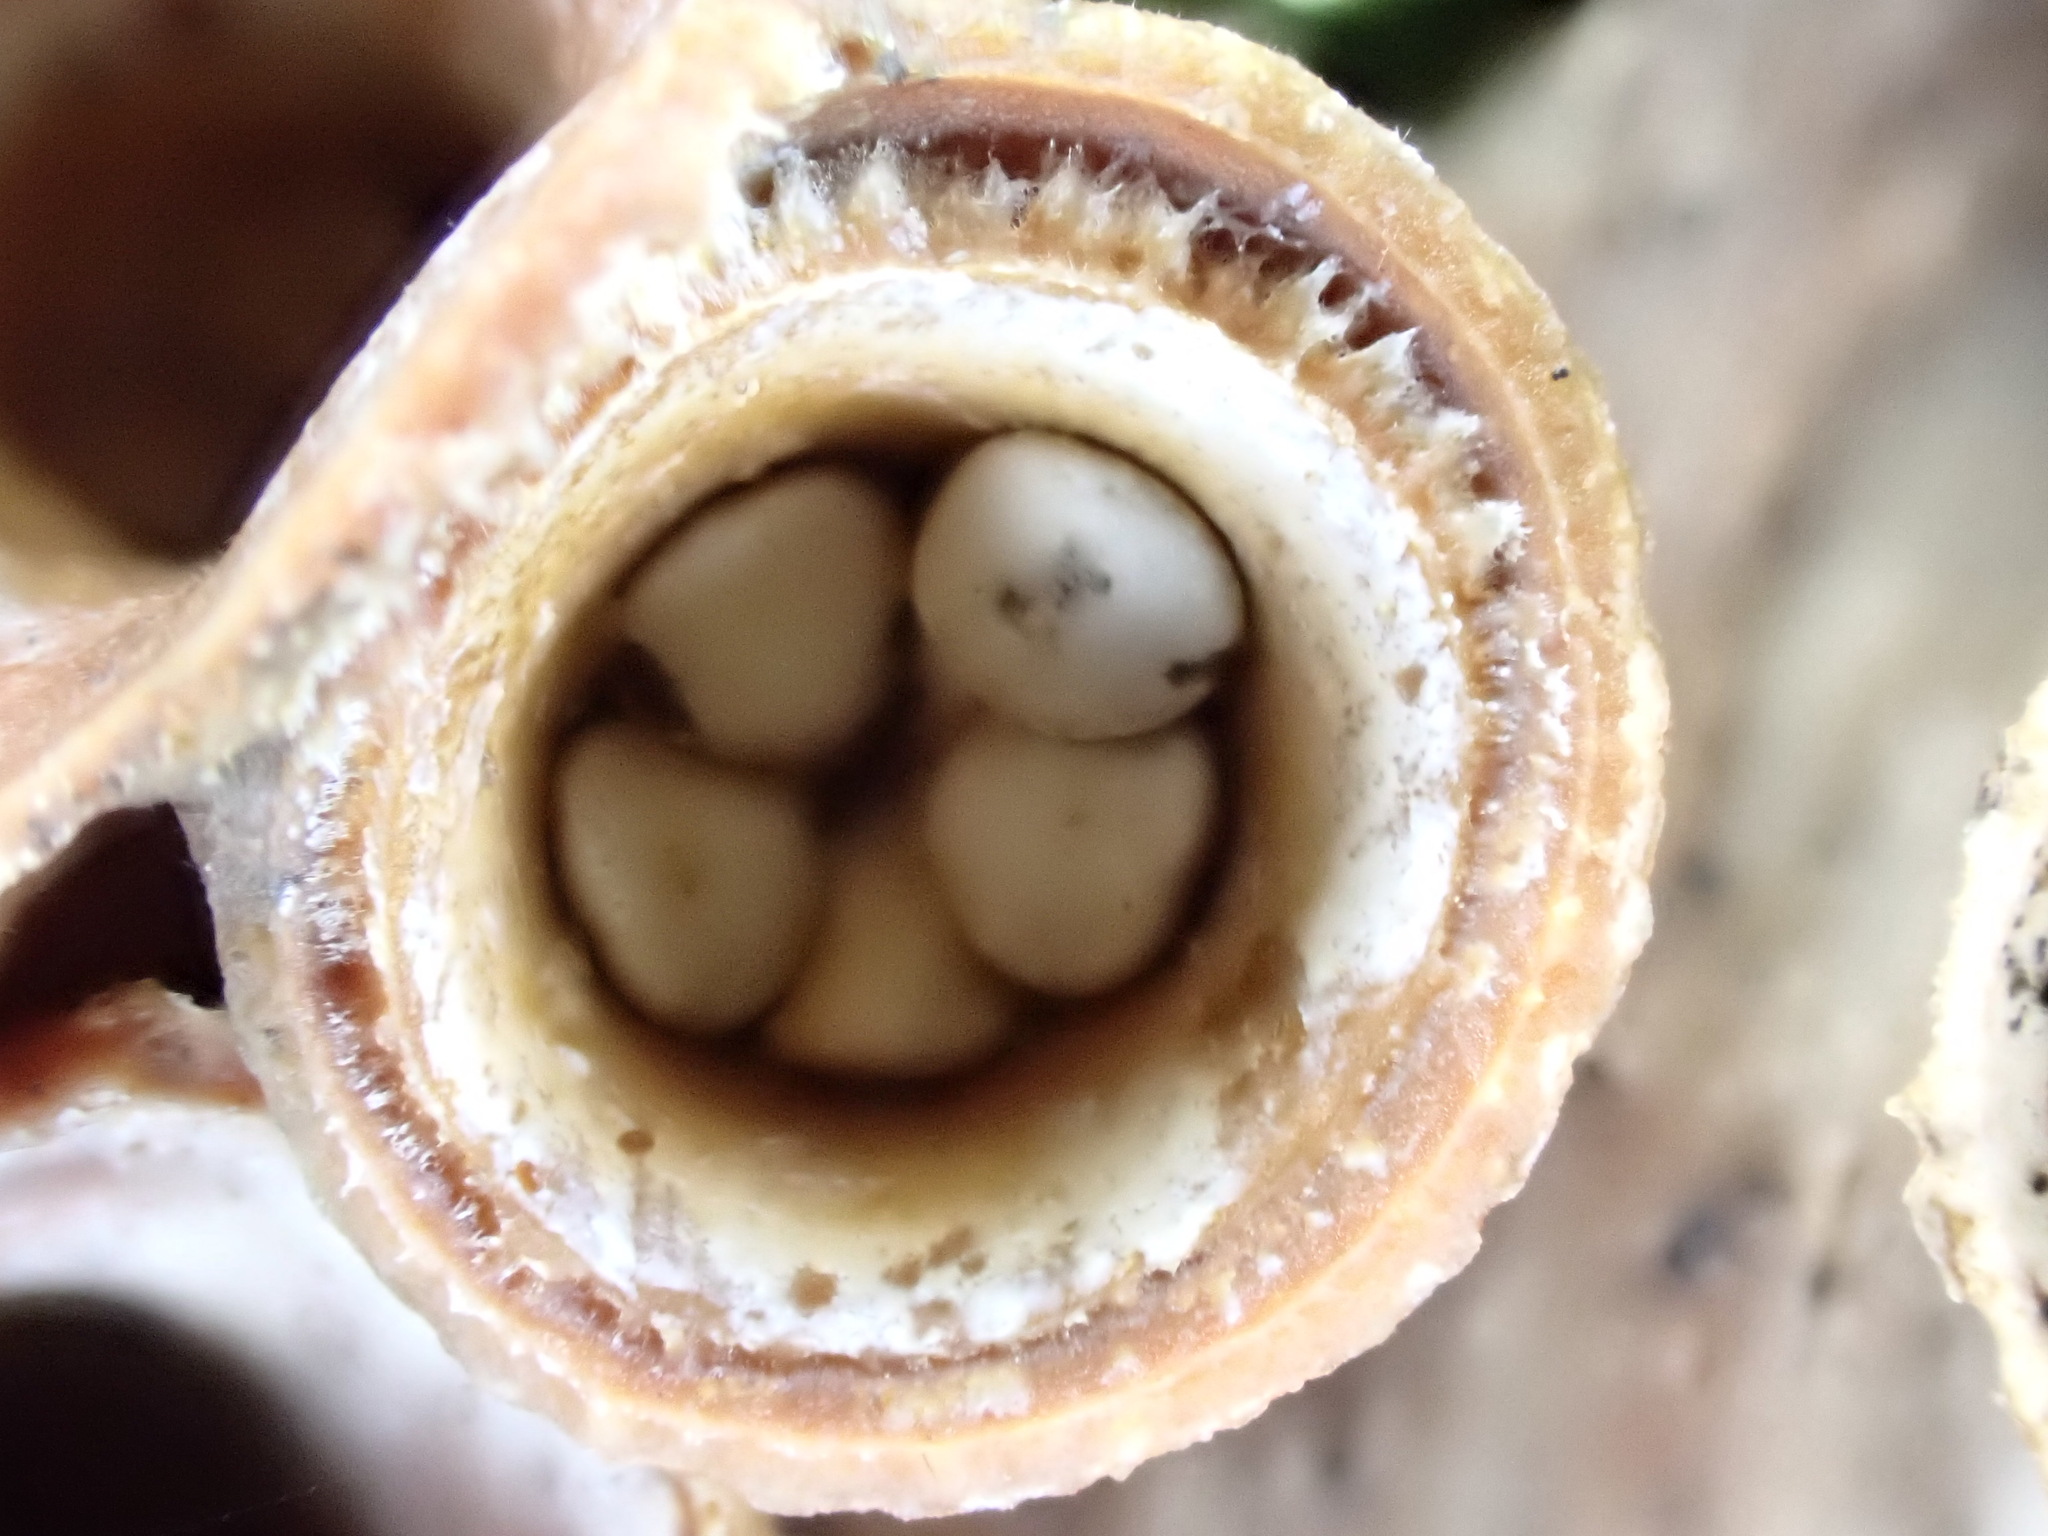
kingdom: Fungi
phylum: Basidiomycota
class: Agaricomycetes
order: Agaricales
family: Nidulariaceae
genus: Crucibulum
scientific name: Crucibulum simile
